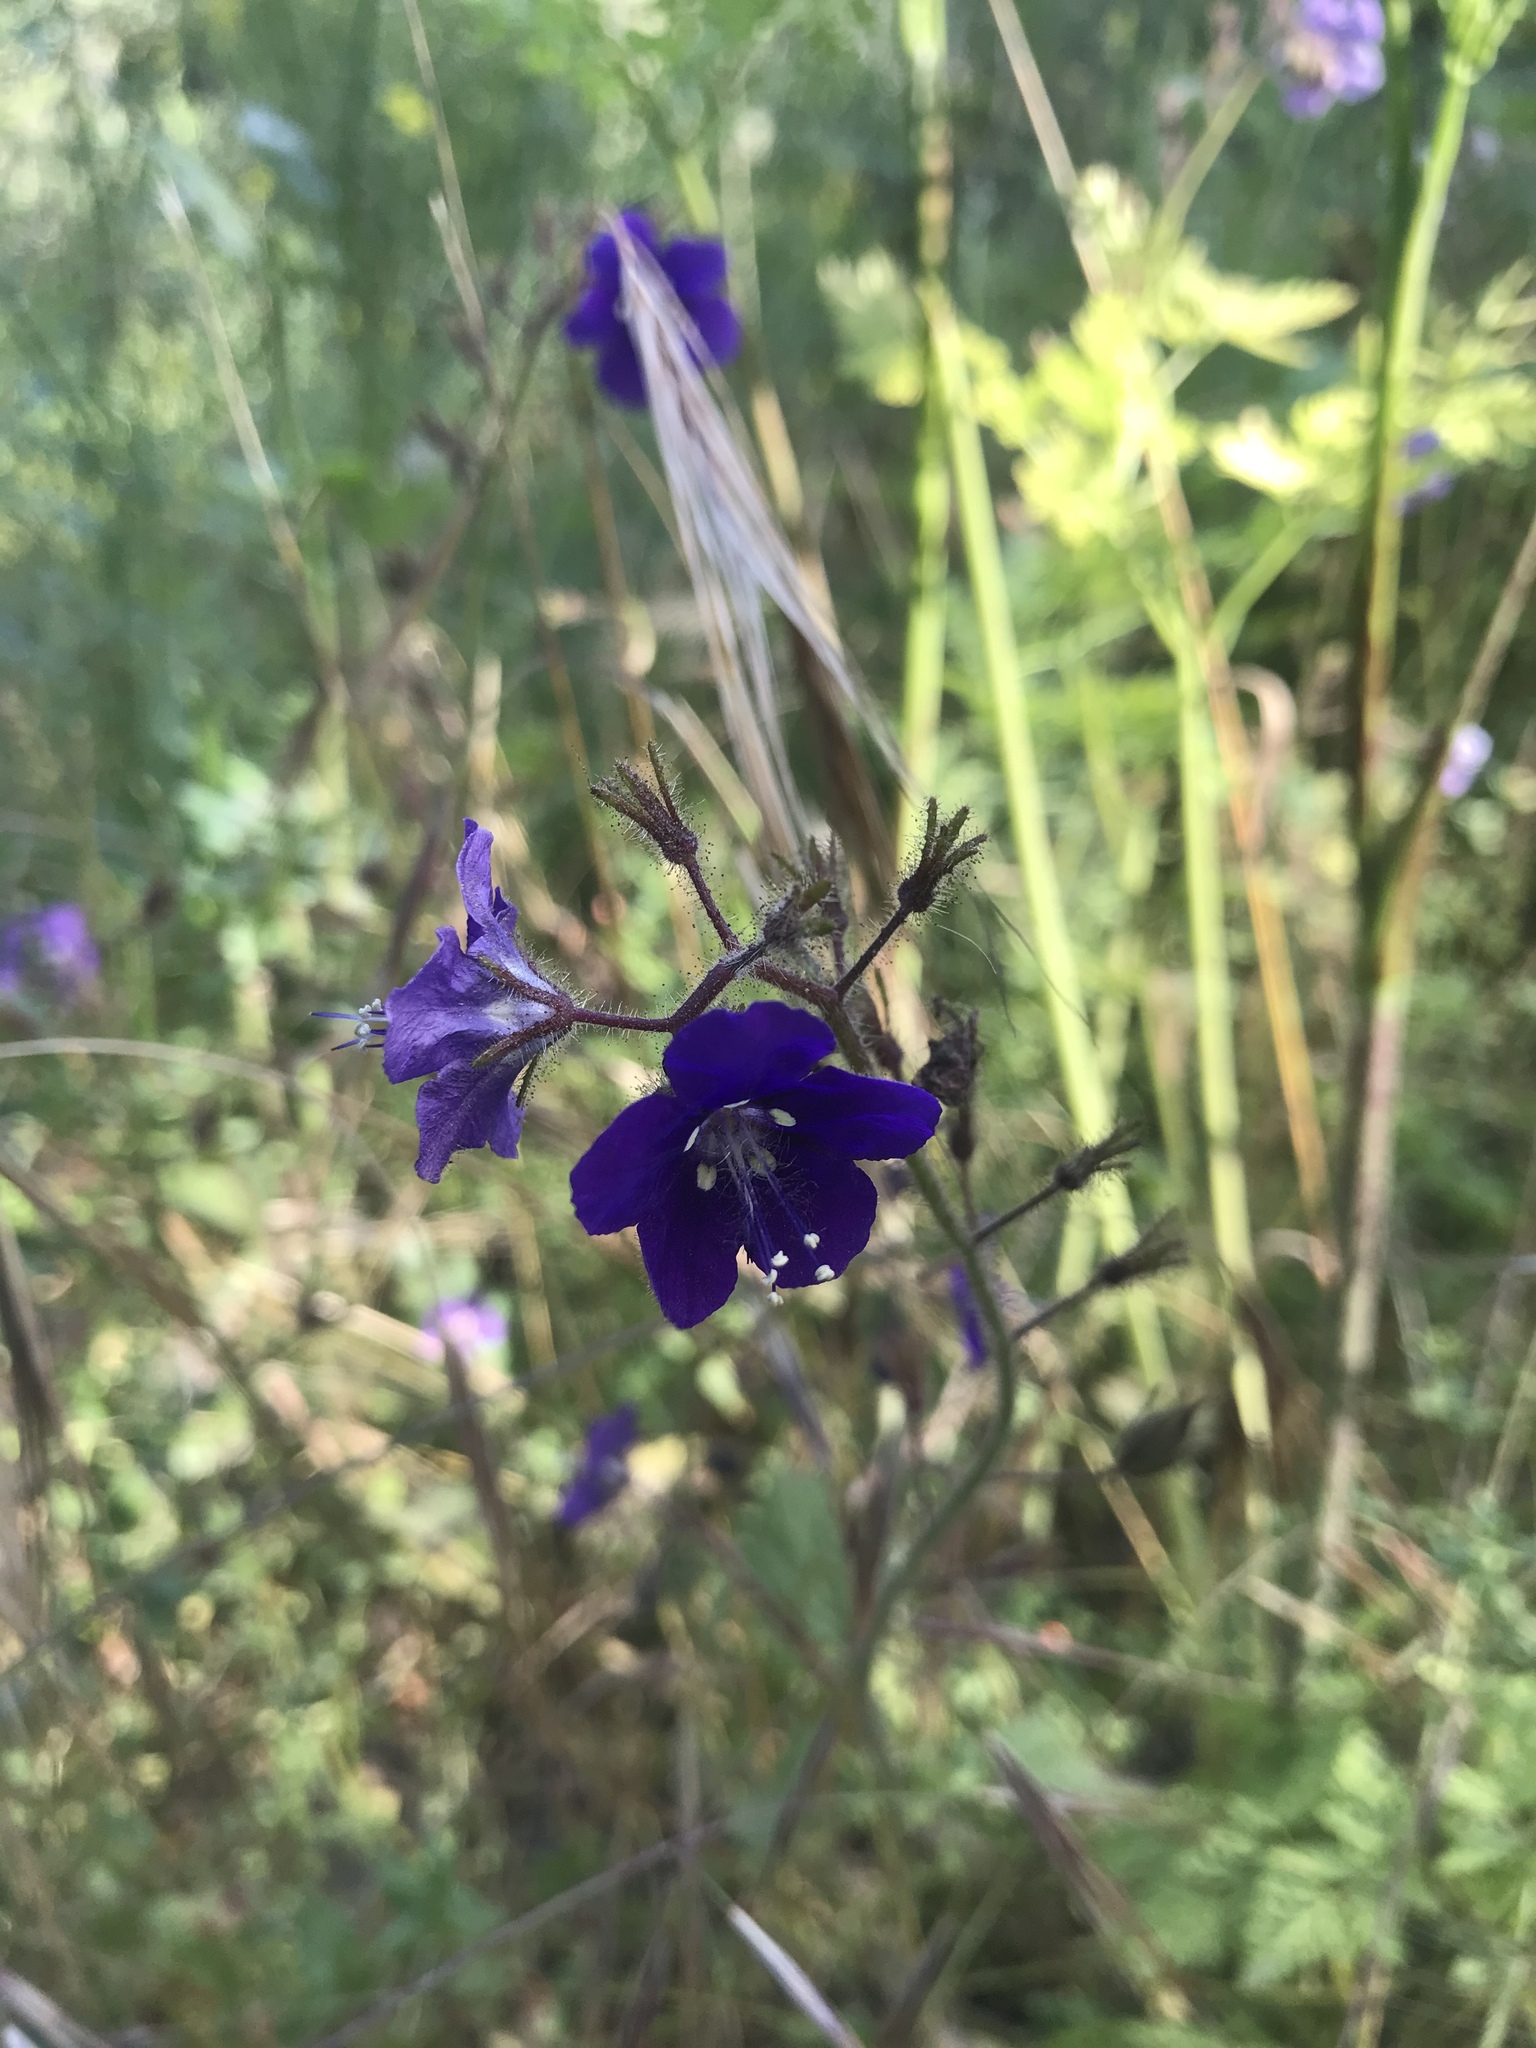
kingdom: Plantae
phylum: Tracheophyta
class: Magnoliopsida
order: Boraginales
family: Hydrophyllaceae
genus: Phacelia
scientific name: Phacelia parryi
